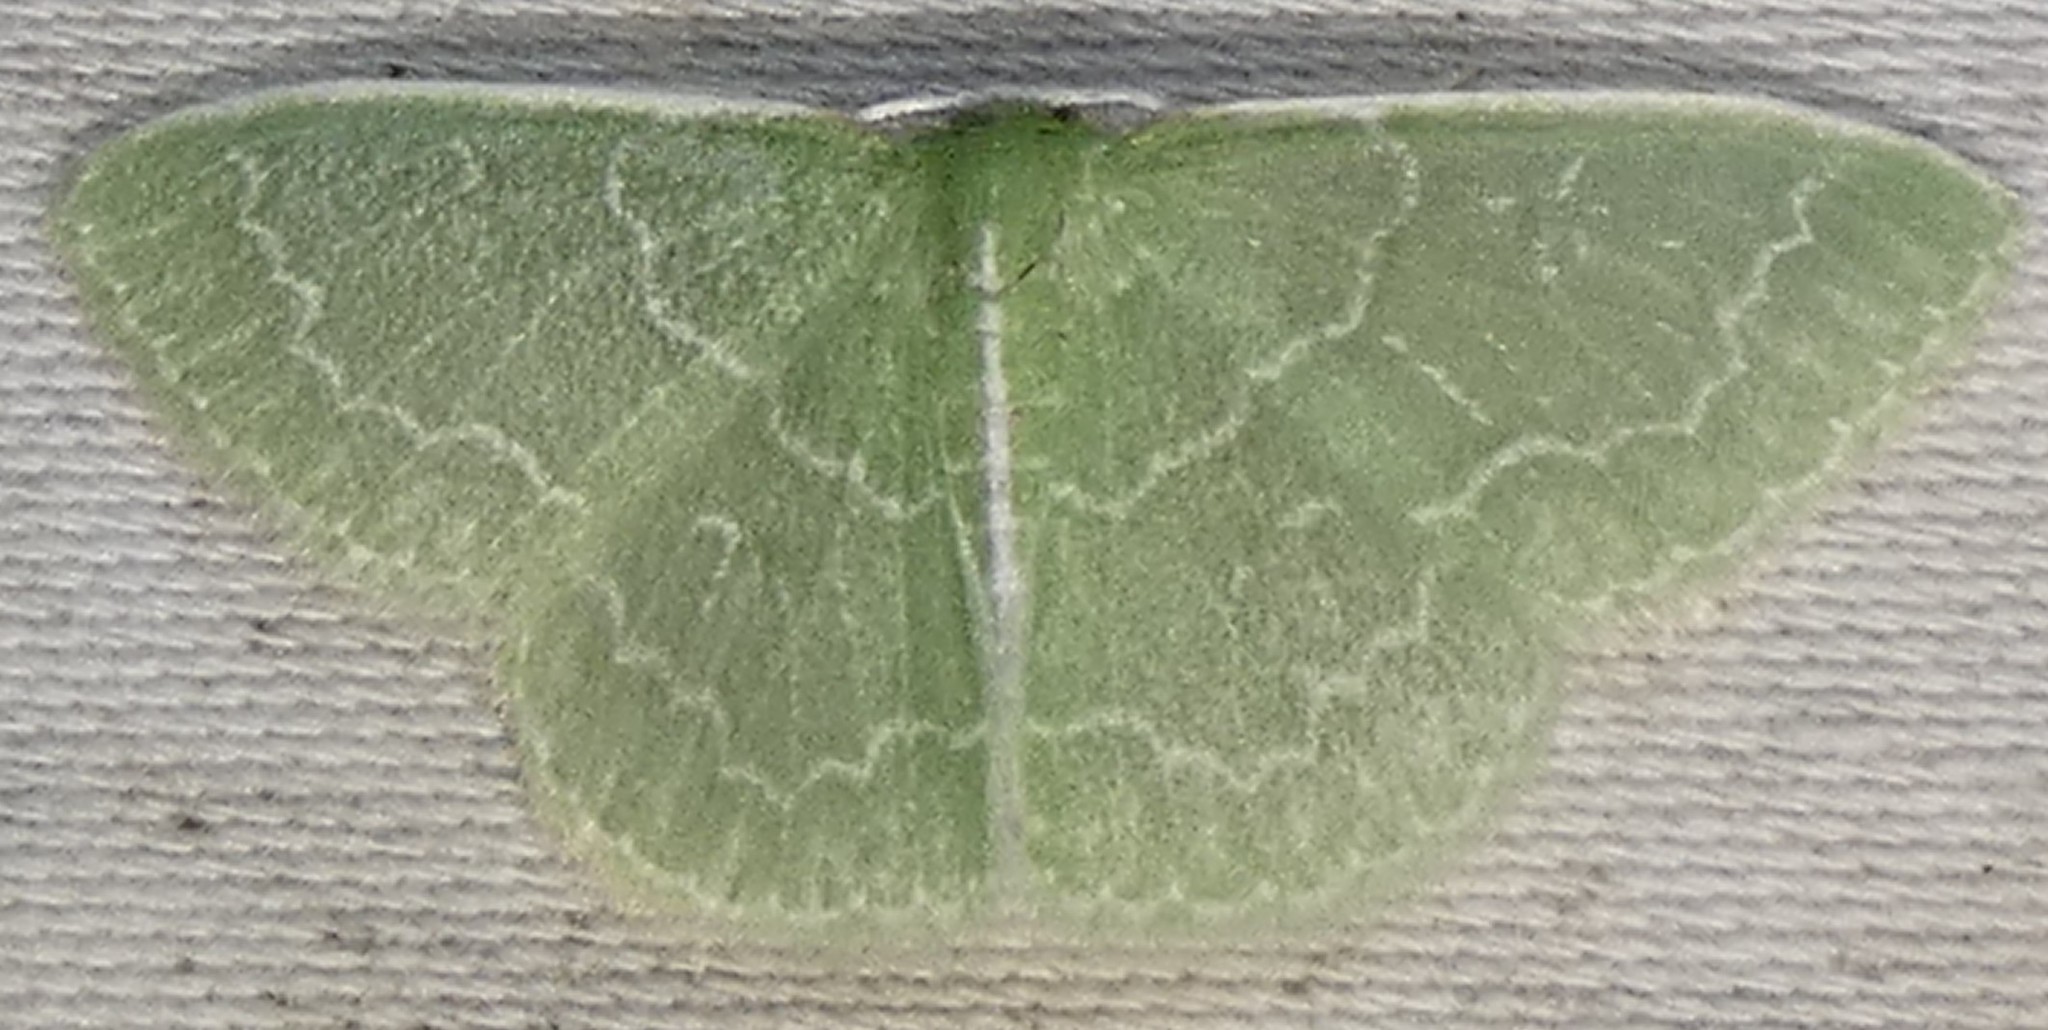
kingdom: Animalia
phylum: Arthropoda
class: Insecta
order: Lepidoptera
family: Geometridae
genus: Synchlora
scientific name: Synchlora frondaria
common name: Southern emerald
